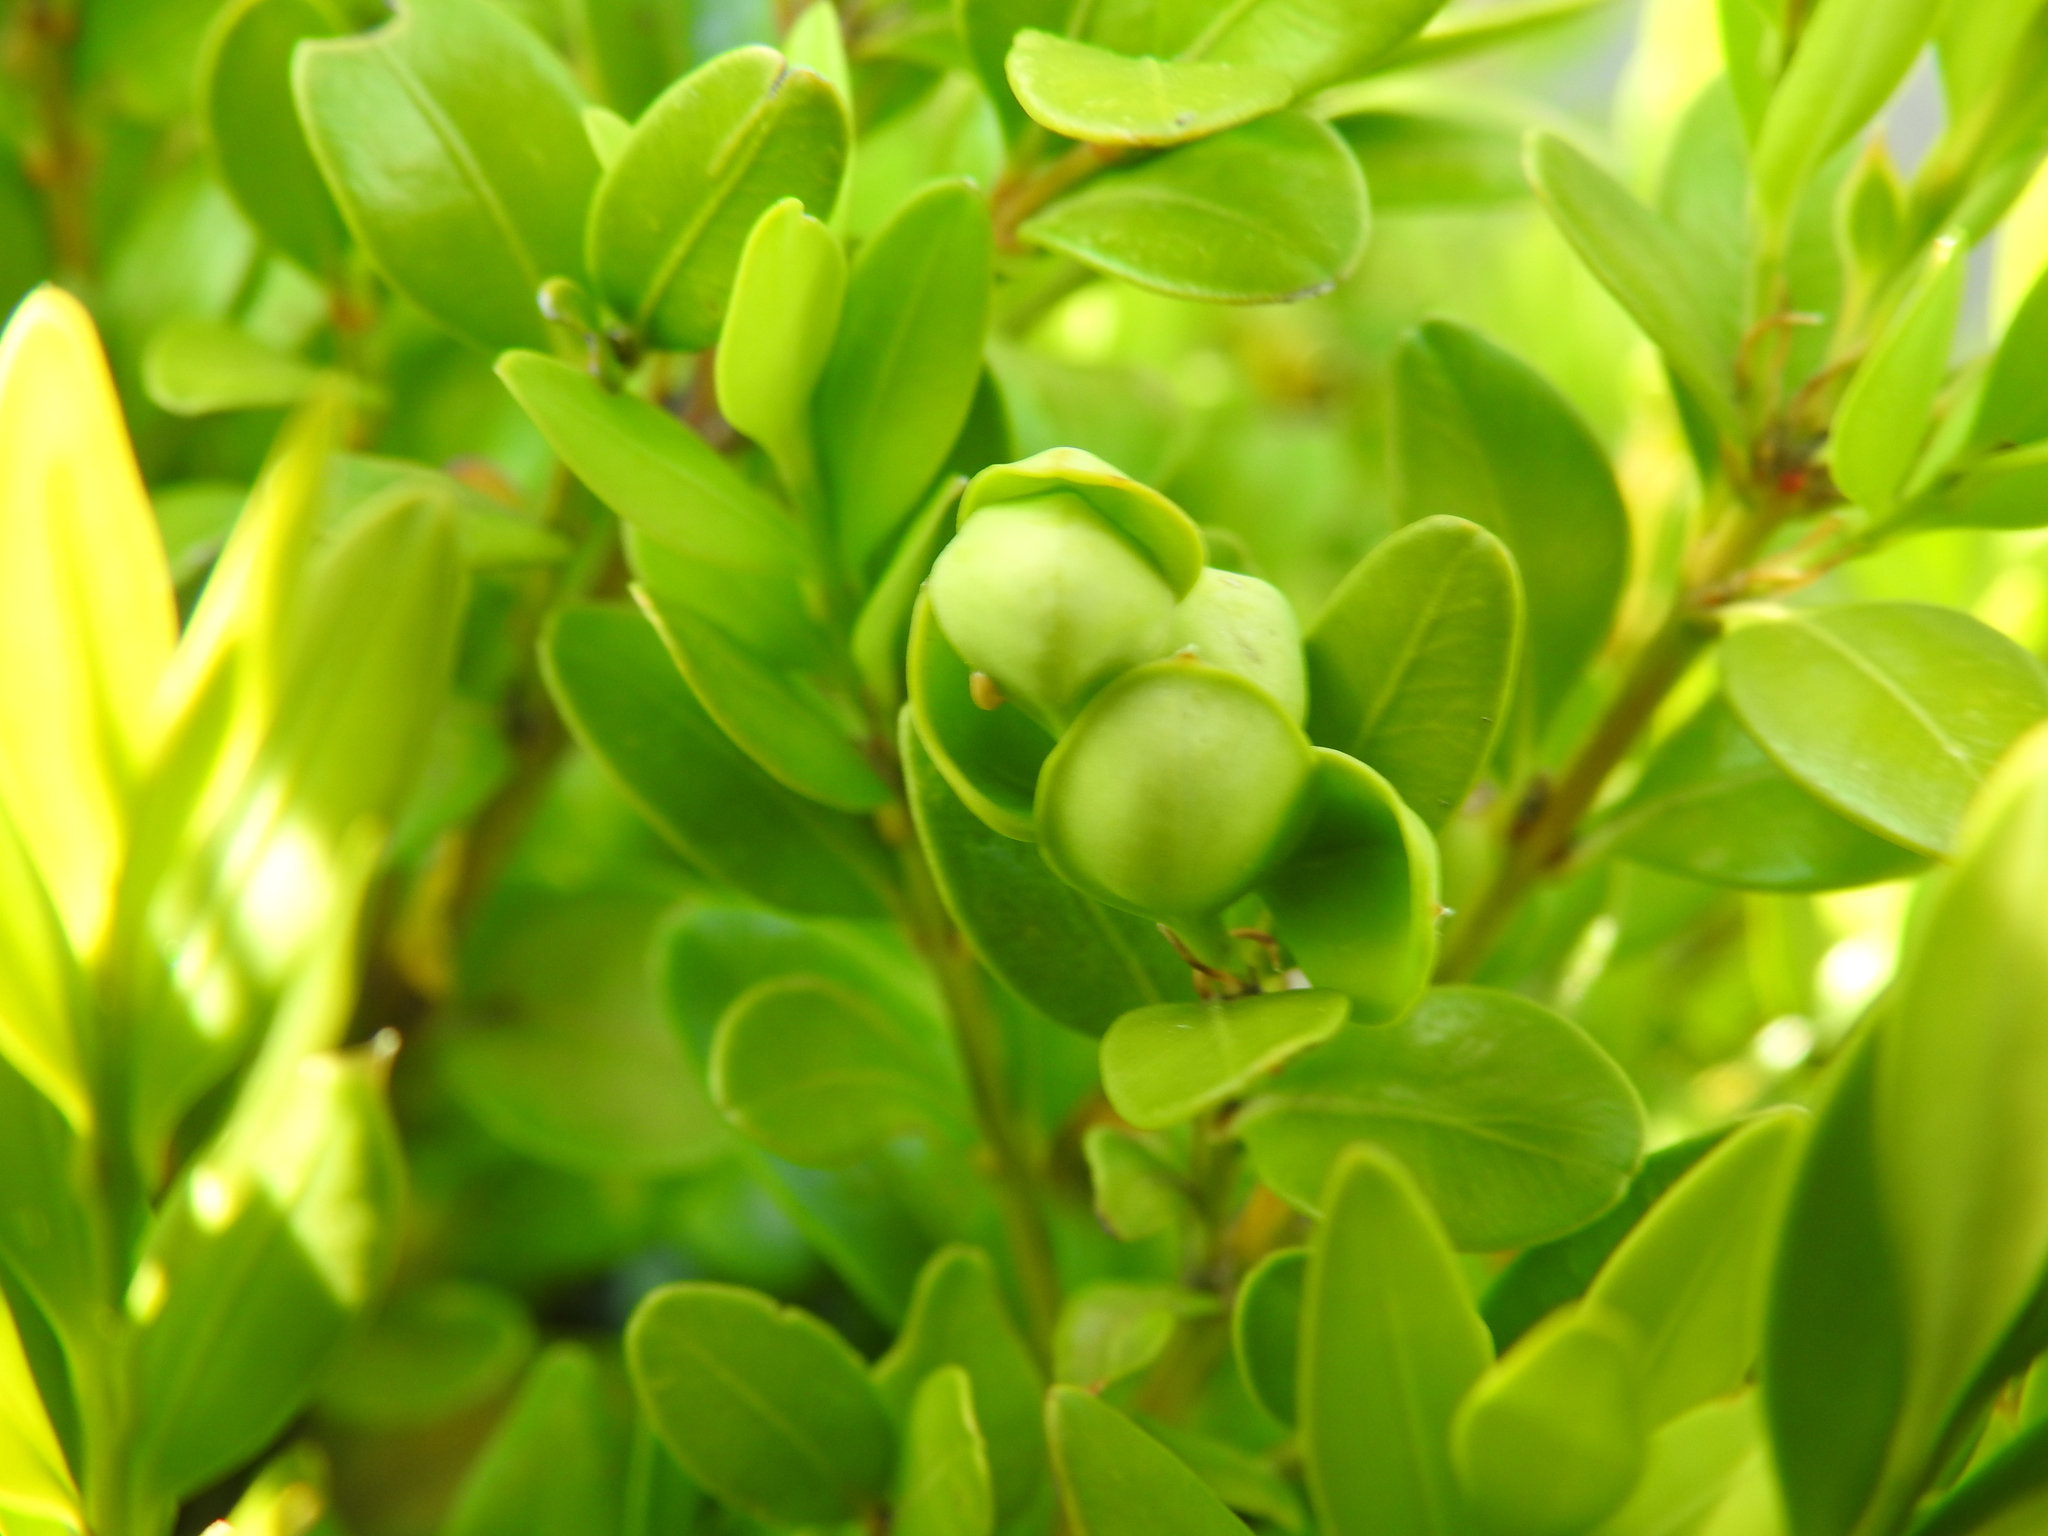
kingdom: Animalia
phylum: Arthropoda
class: Insecta
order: Hemiptera
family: Psyllidae
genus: Psylla
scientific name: Psylla buxi
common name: Boxwood psyllid
